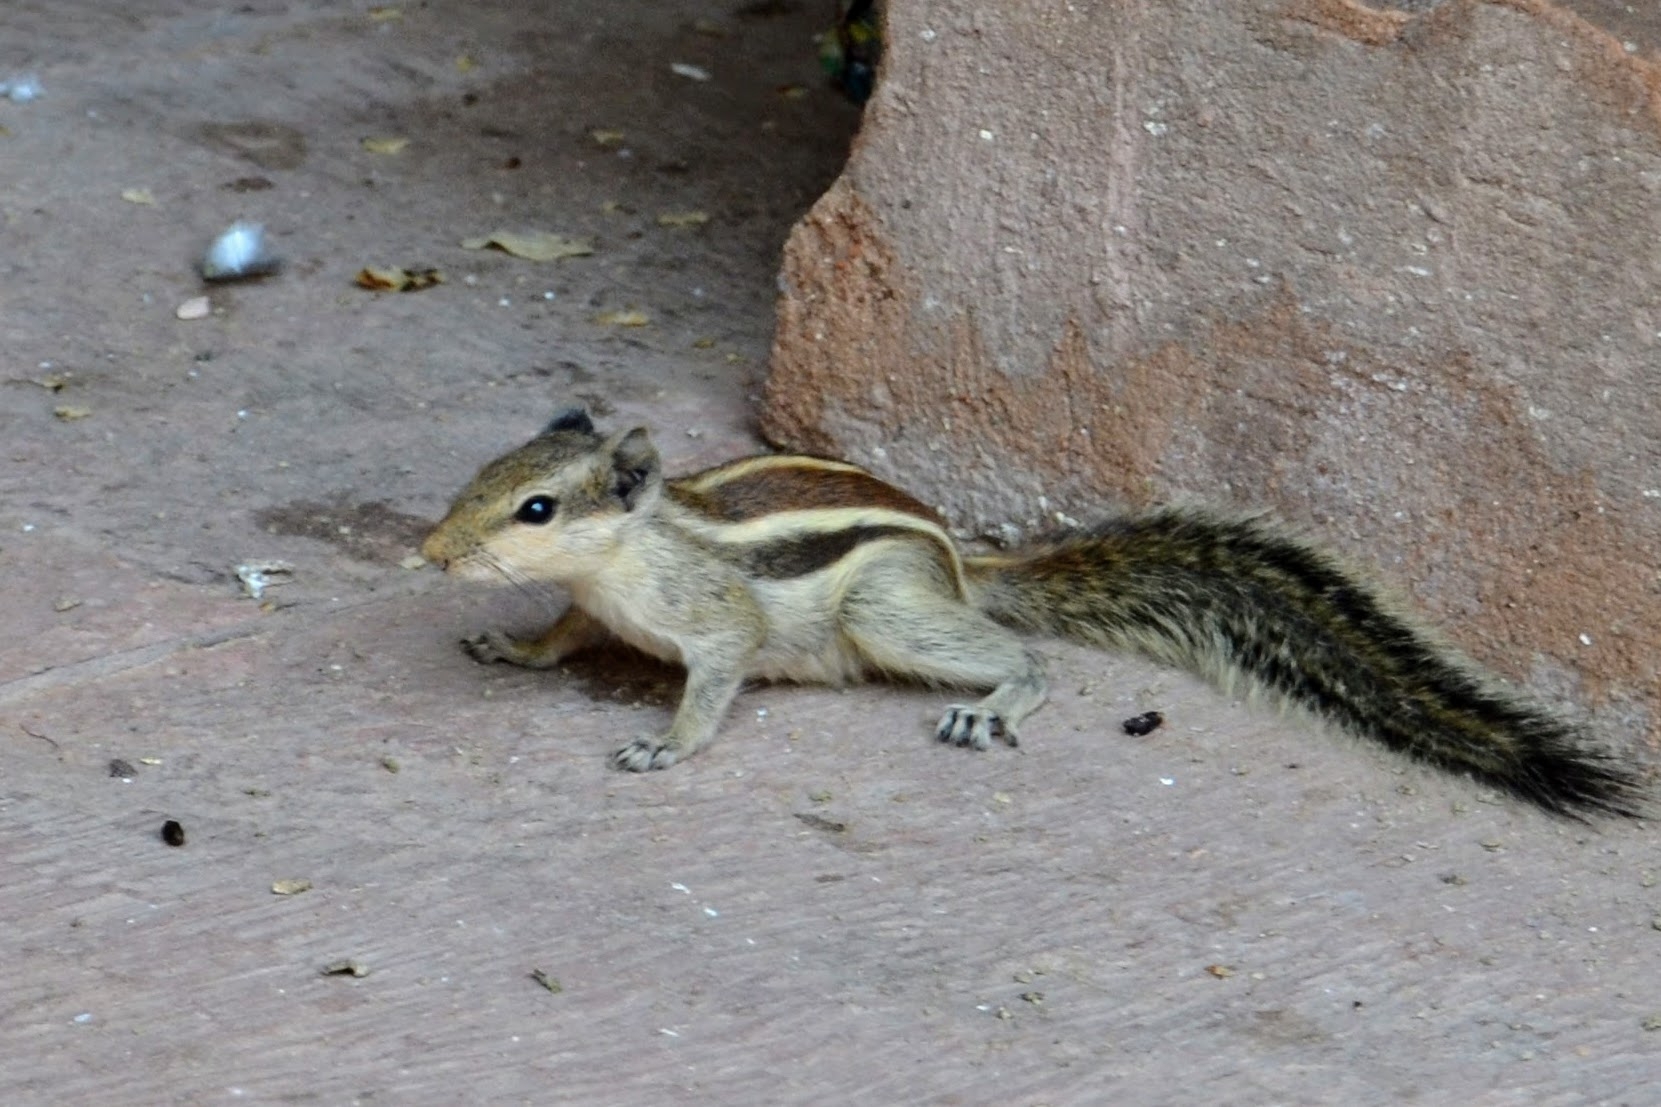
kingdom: Animalia
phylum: Chordata
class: Mammalia
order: Rodentia
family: Sciuridae
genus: Funambulus
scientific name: Funambulus pennantii
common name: Northern palm squirrel
